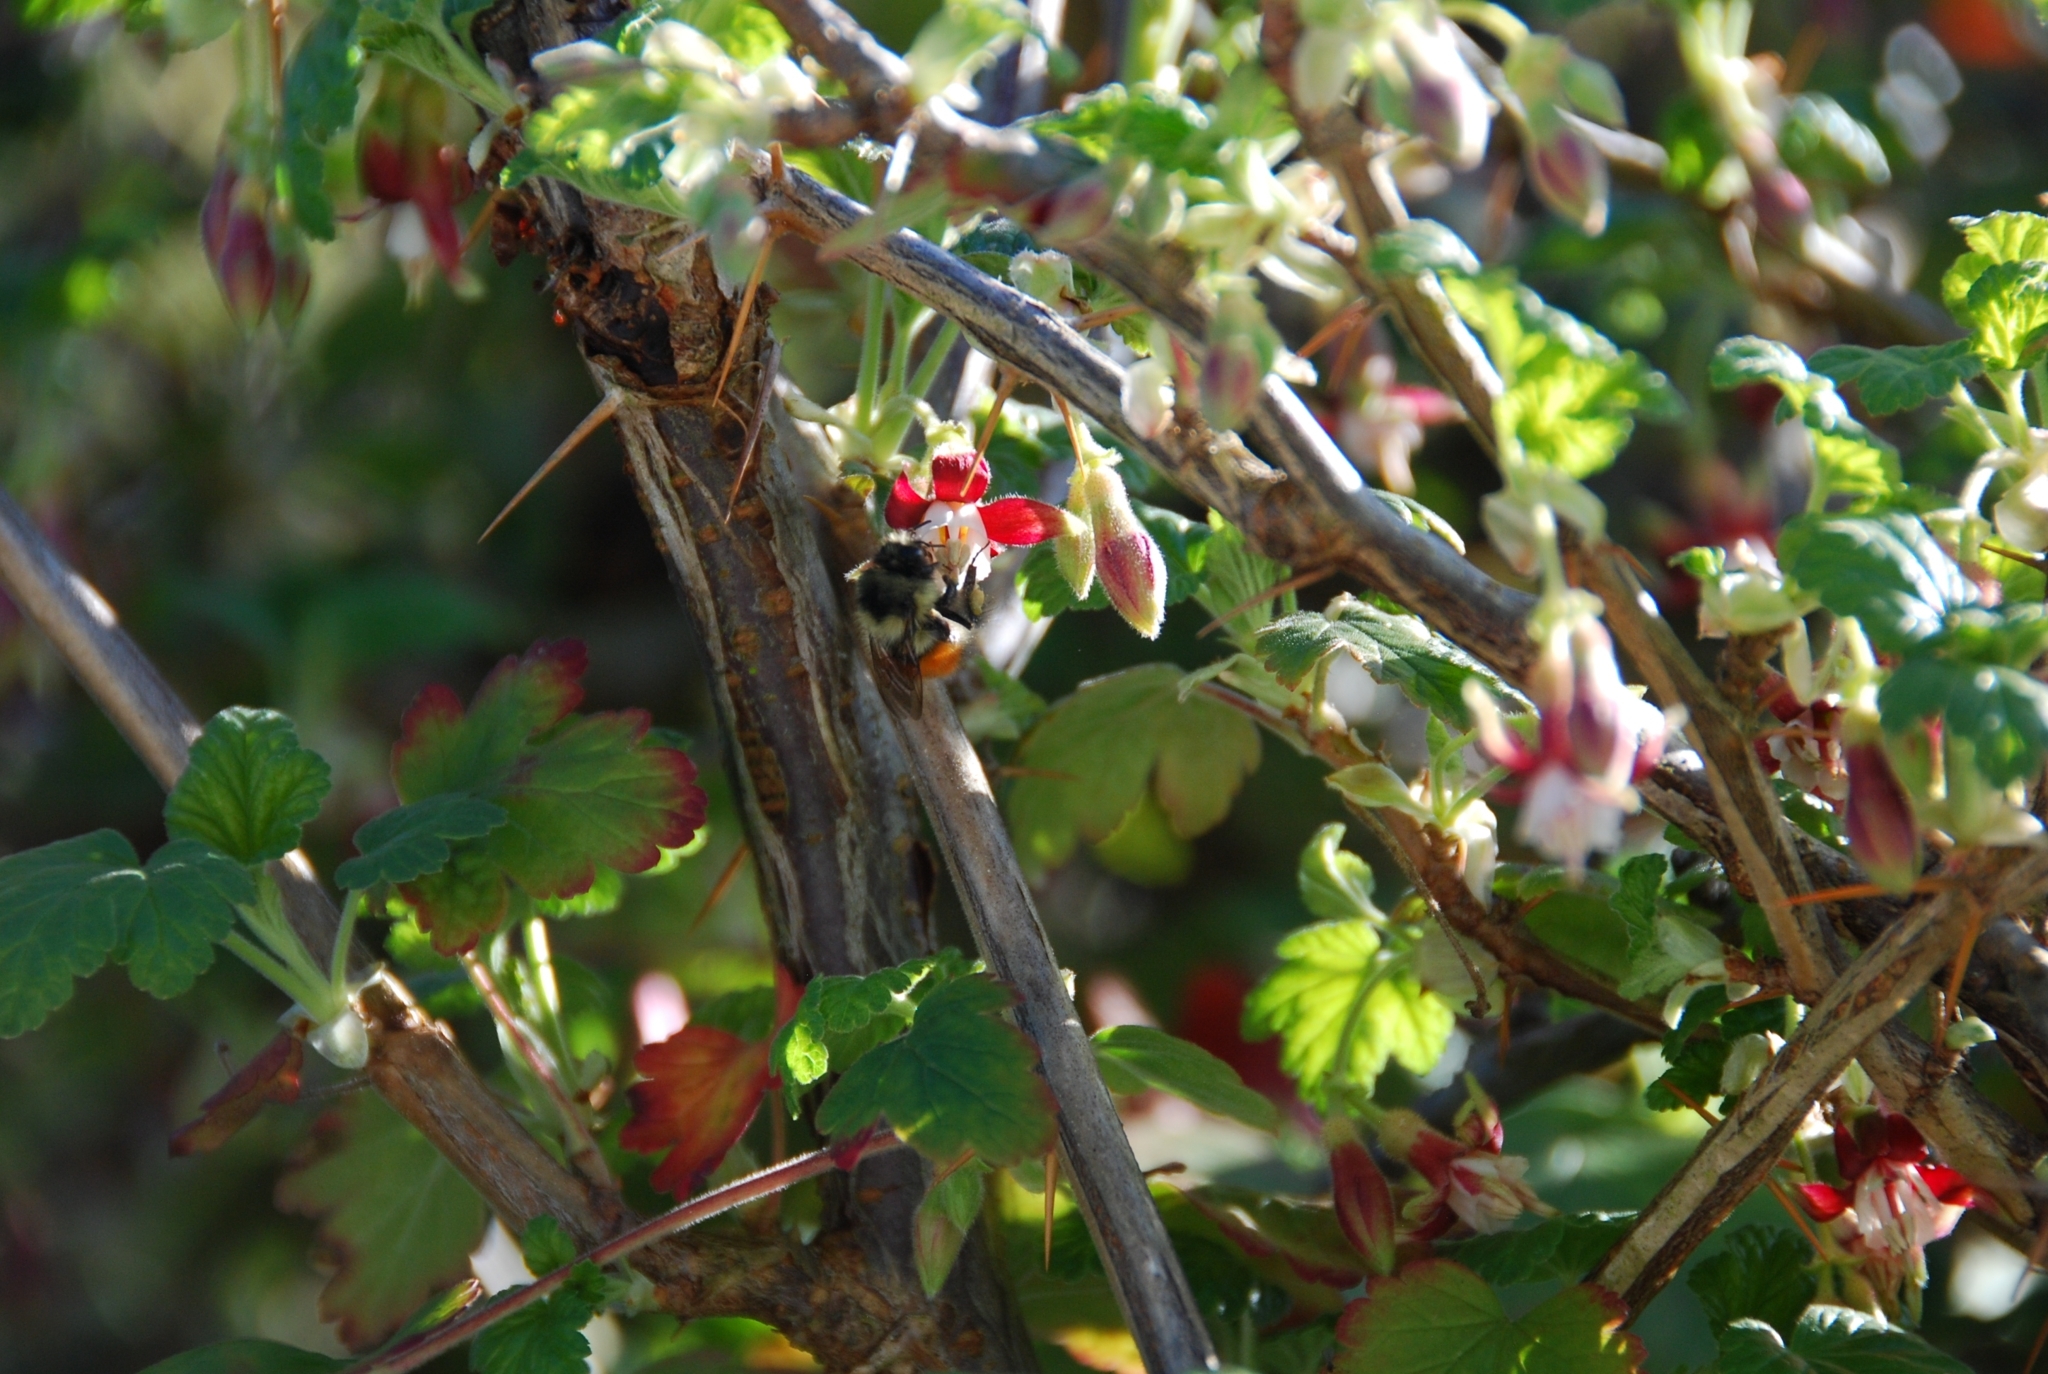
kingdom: Animalia
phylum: Arthropoda
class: Insecta
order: Hymenoptera
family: Apidae
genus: Bombus
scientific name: Bombus melanopygus
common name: Black tail bumble bee
